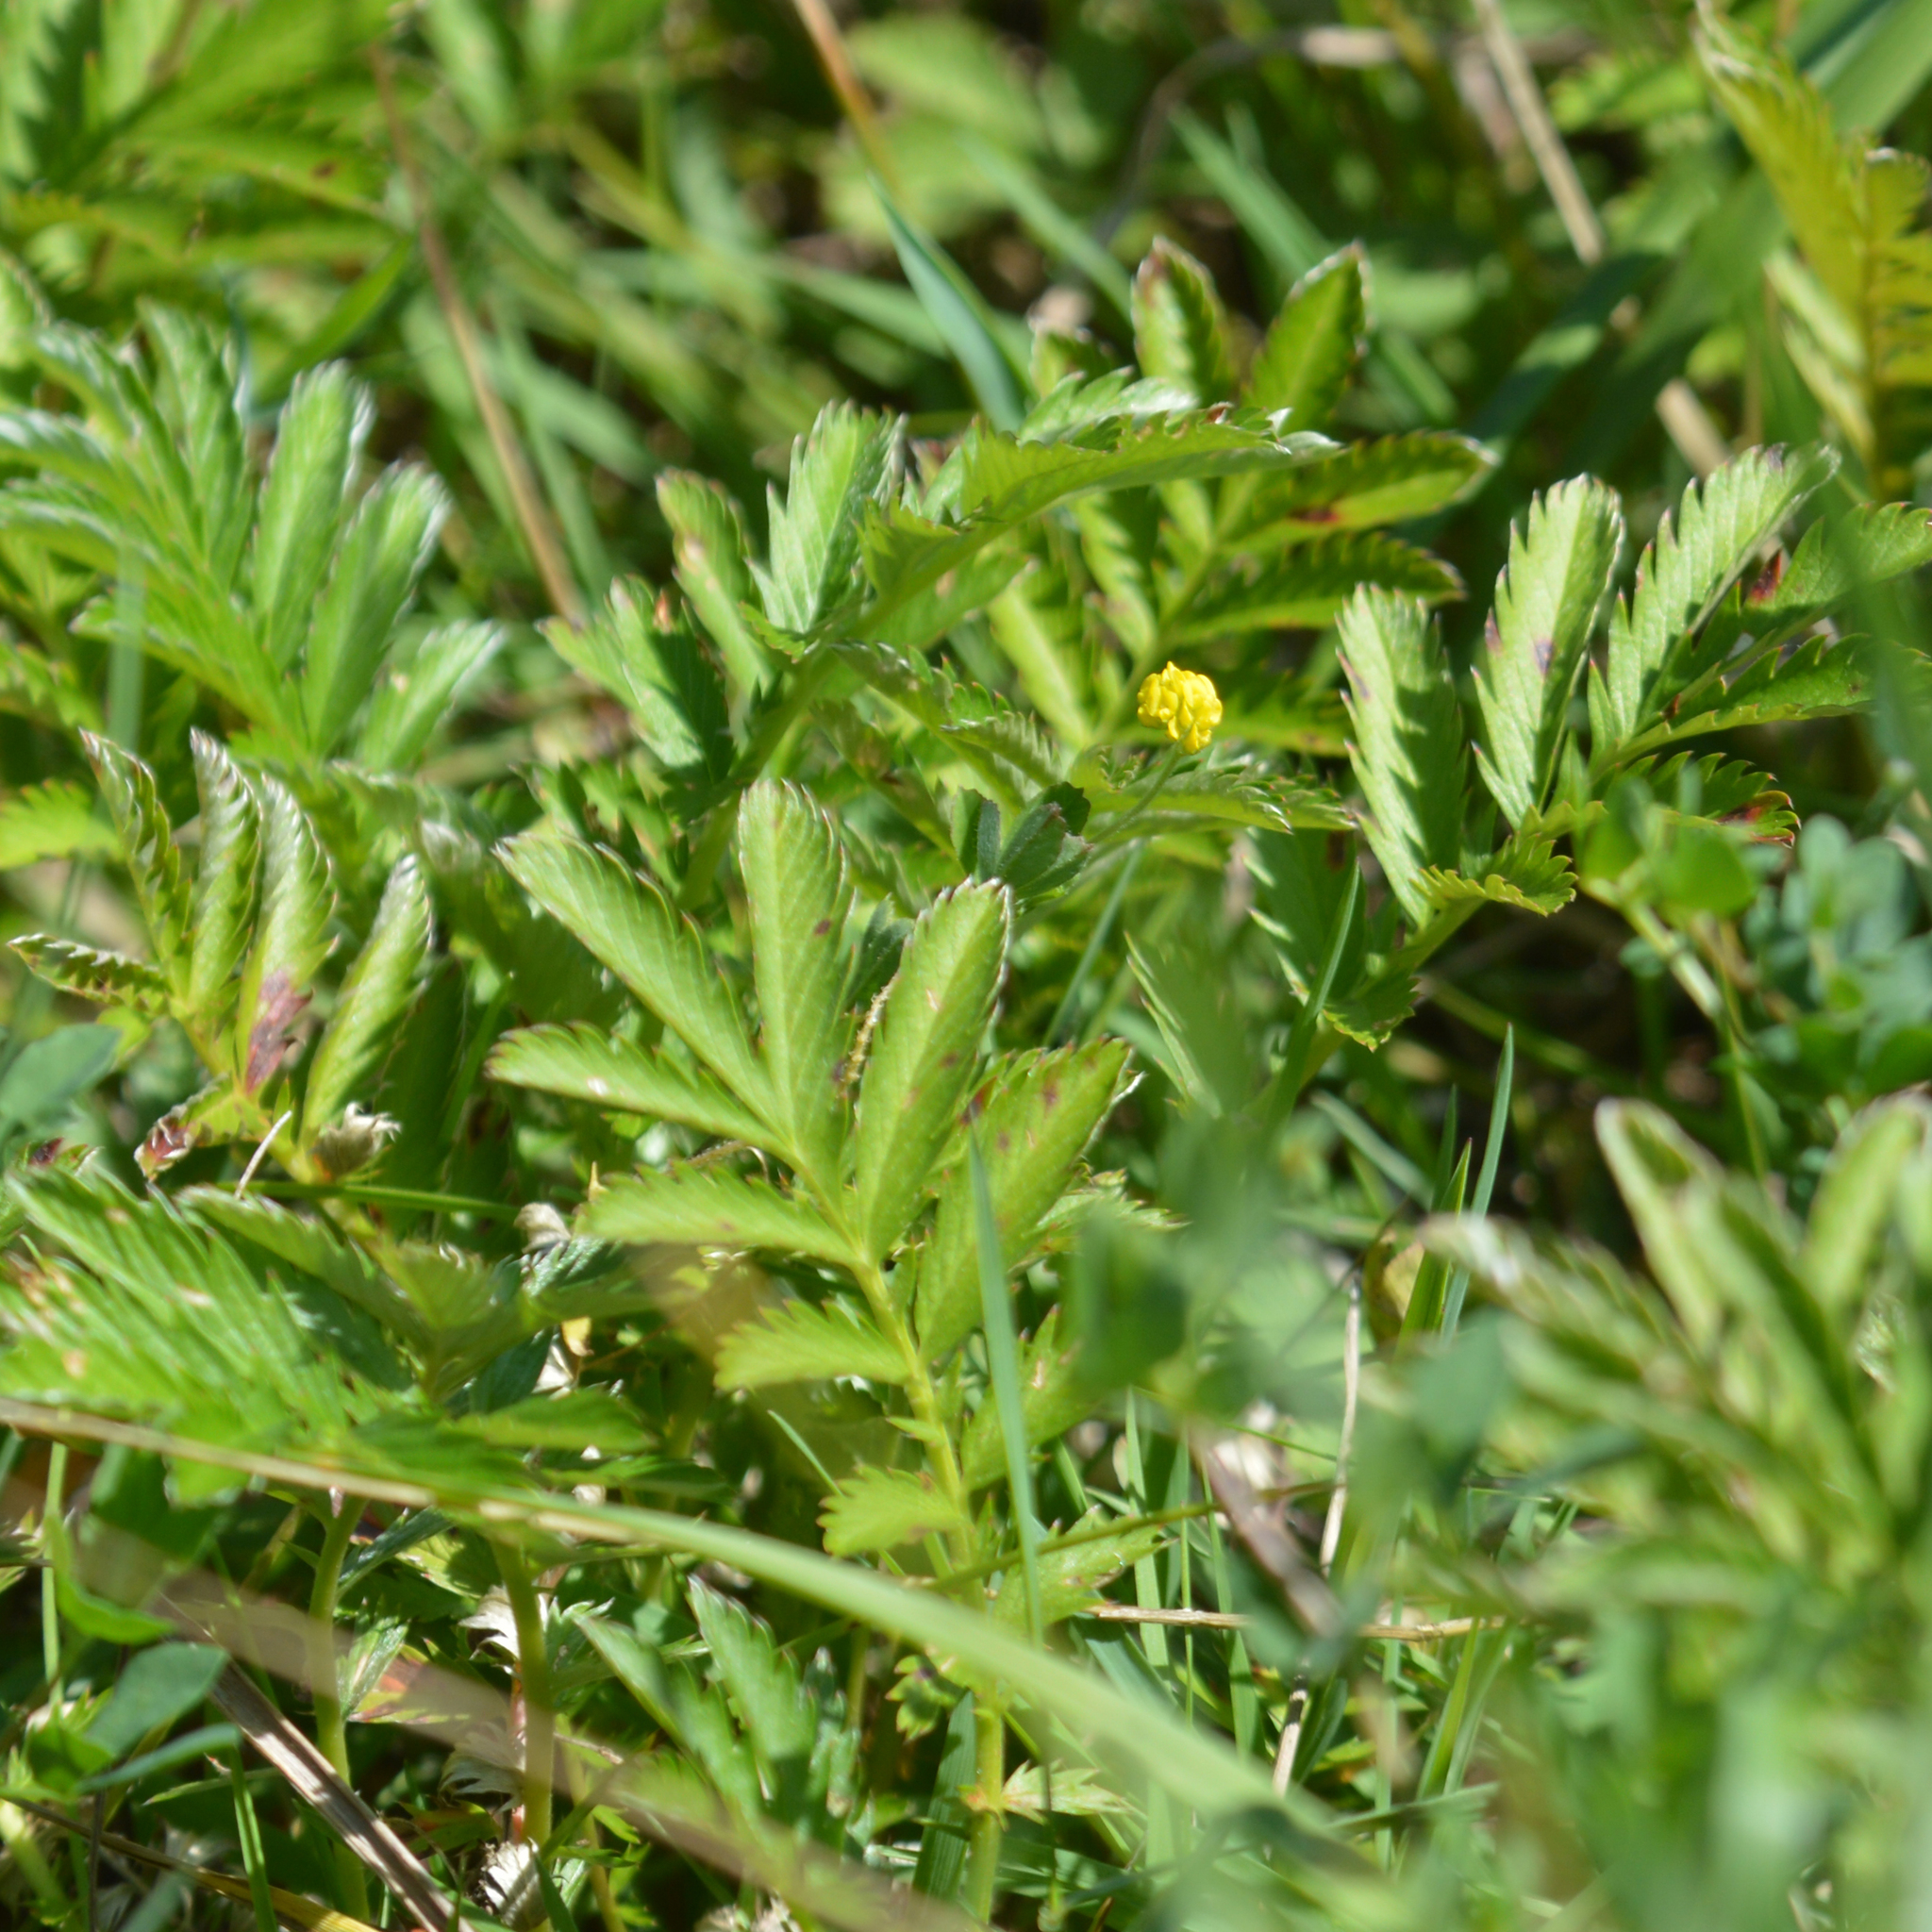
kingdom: Plantae
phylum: Tracheophyta
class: Magnoliopsida
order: Rosales
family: Rosaceae
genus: Argentina
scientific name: Argentina anserina
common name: Common silverweed
